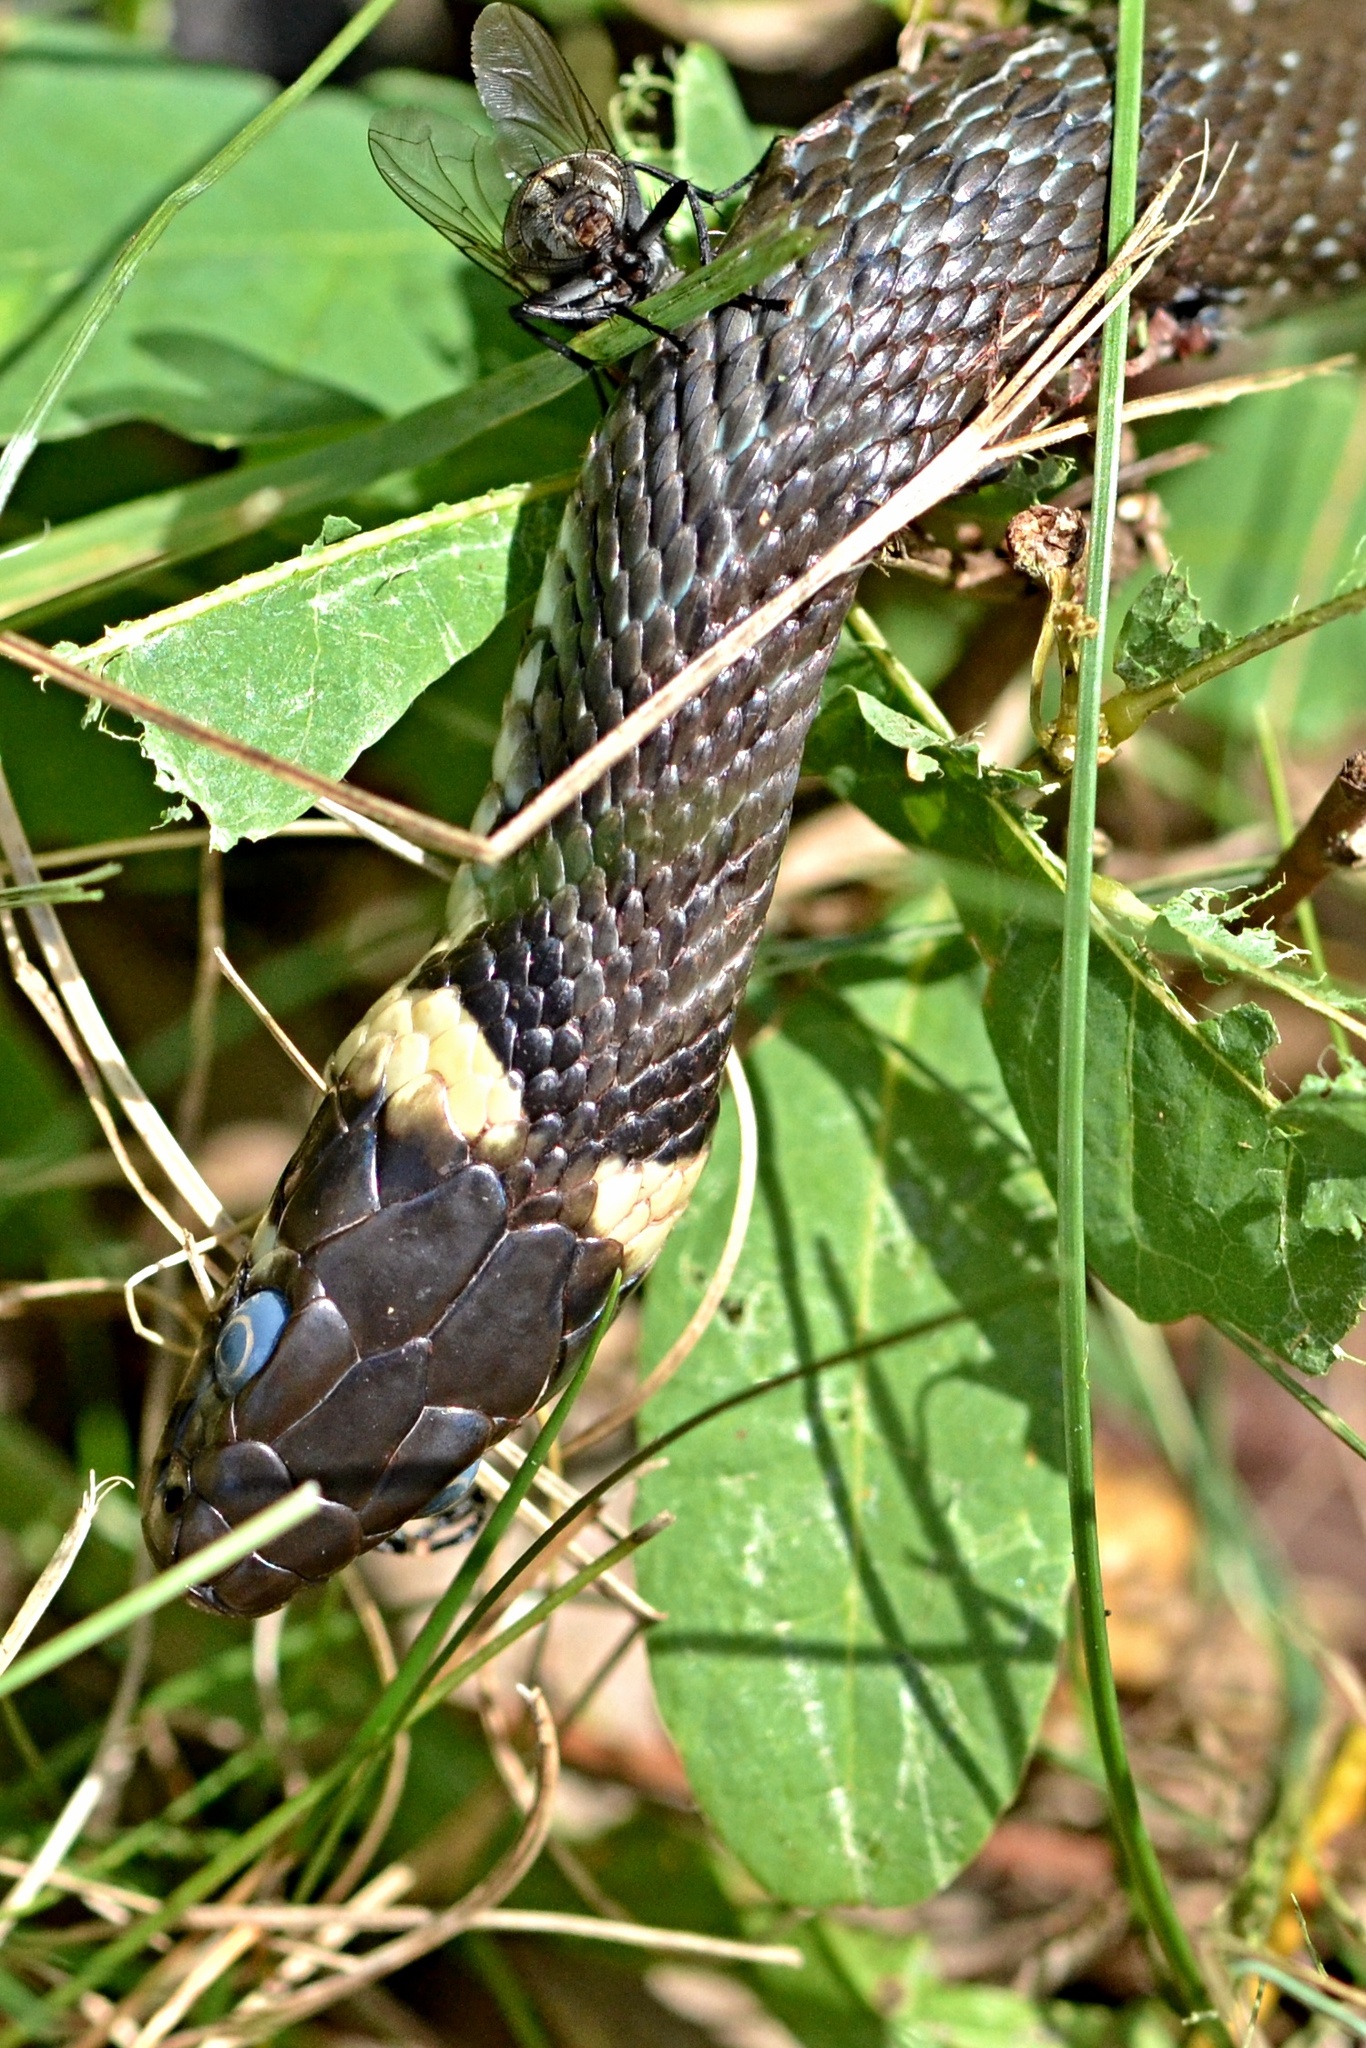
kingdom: Animalia
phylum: Chordata
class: Squamata
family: Colubridae
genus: Natrix
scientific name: Natrix natrix
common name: Grass snake
